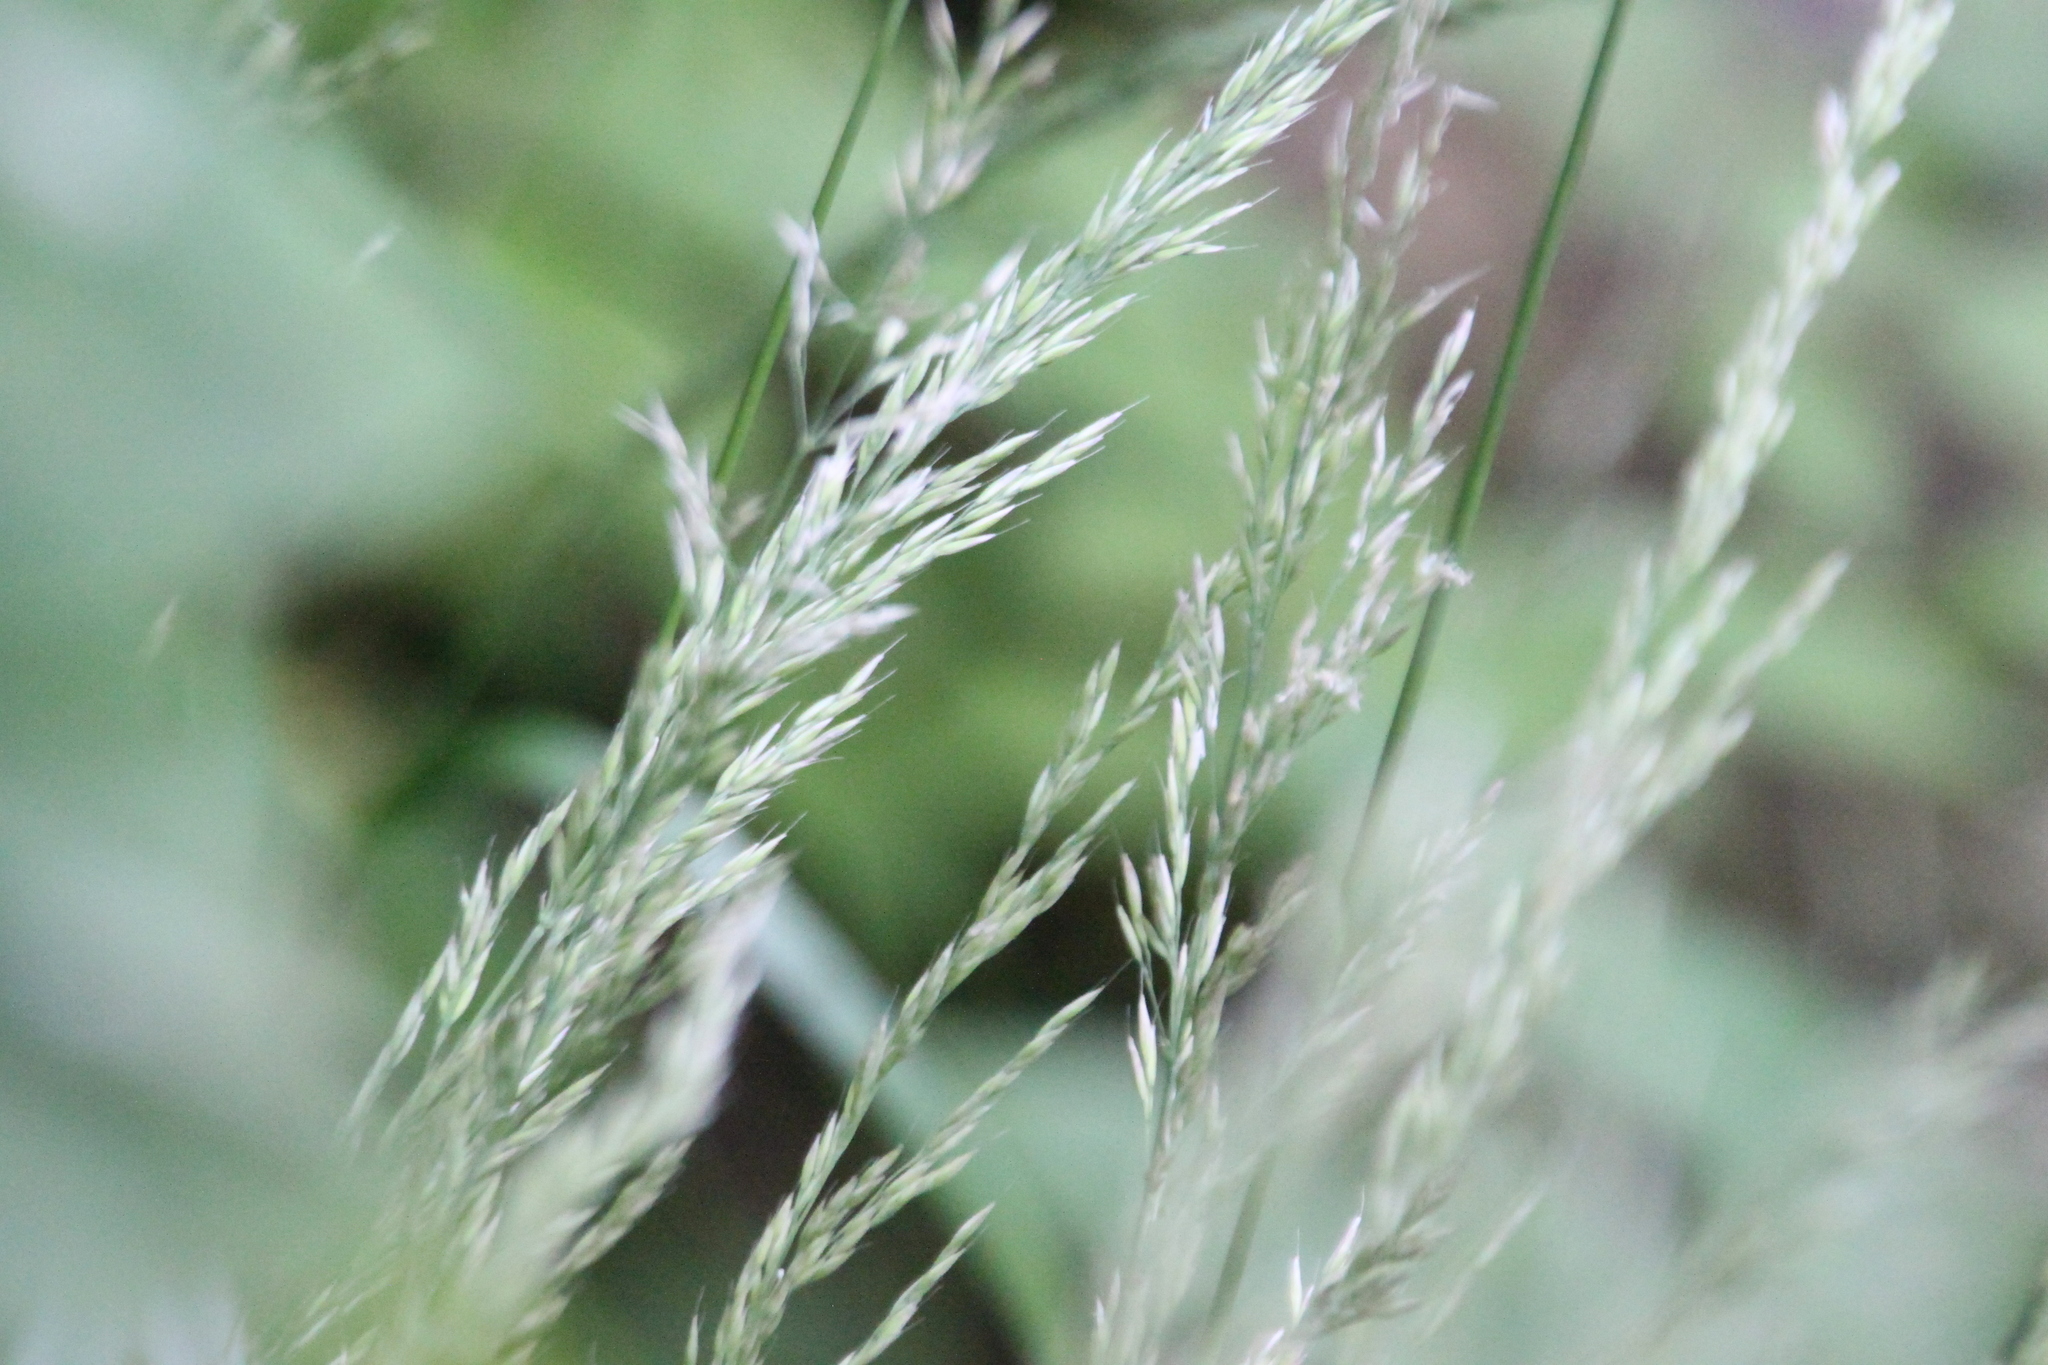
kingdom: Plantae
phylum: Tracheophyta
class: Liliopsida
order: Poales
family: Poaceae
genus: Calamagrostis
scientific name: Calamagrostis arundinacea
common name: Metskastik
